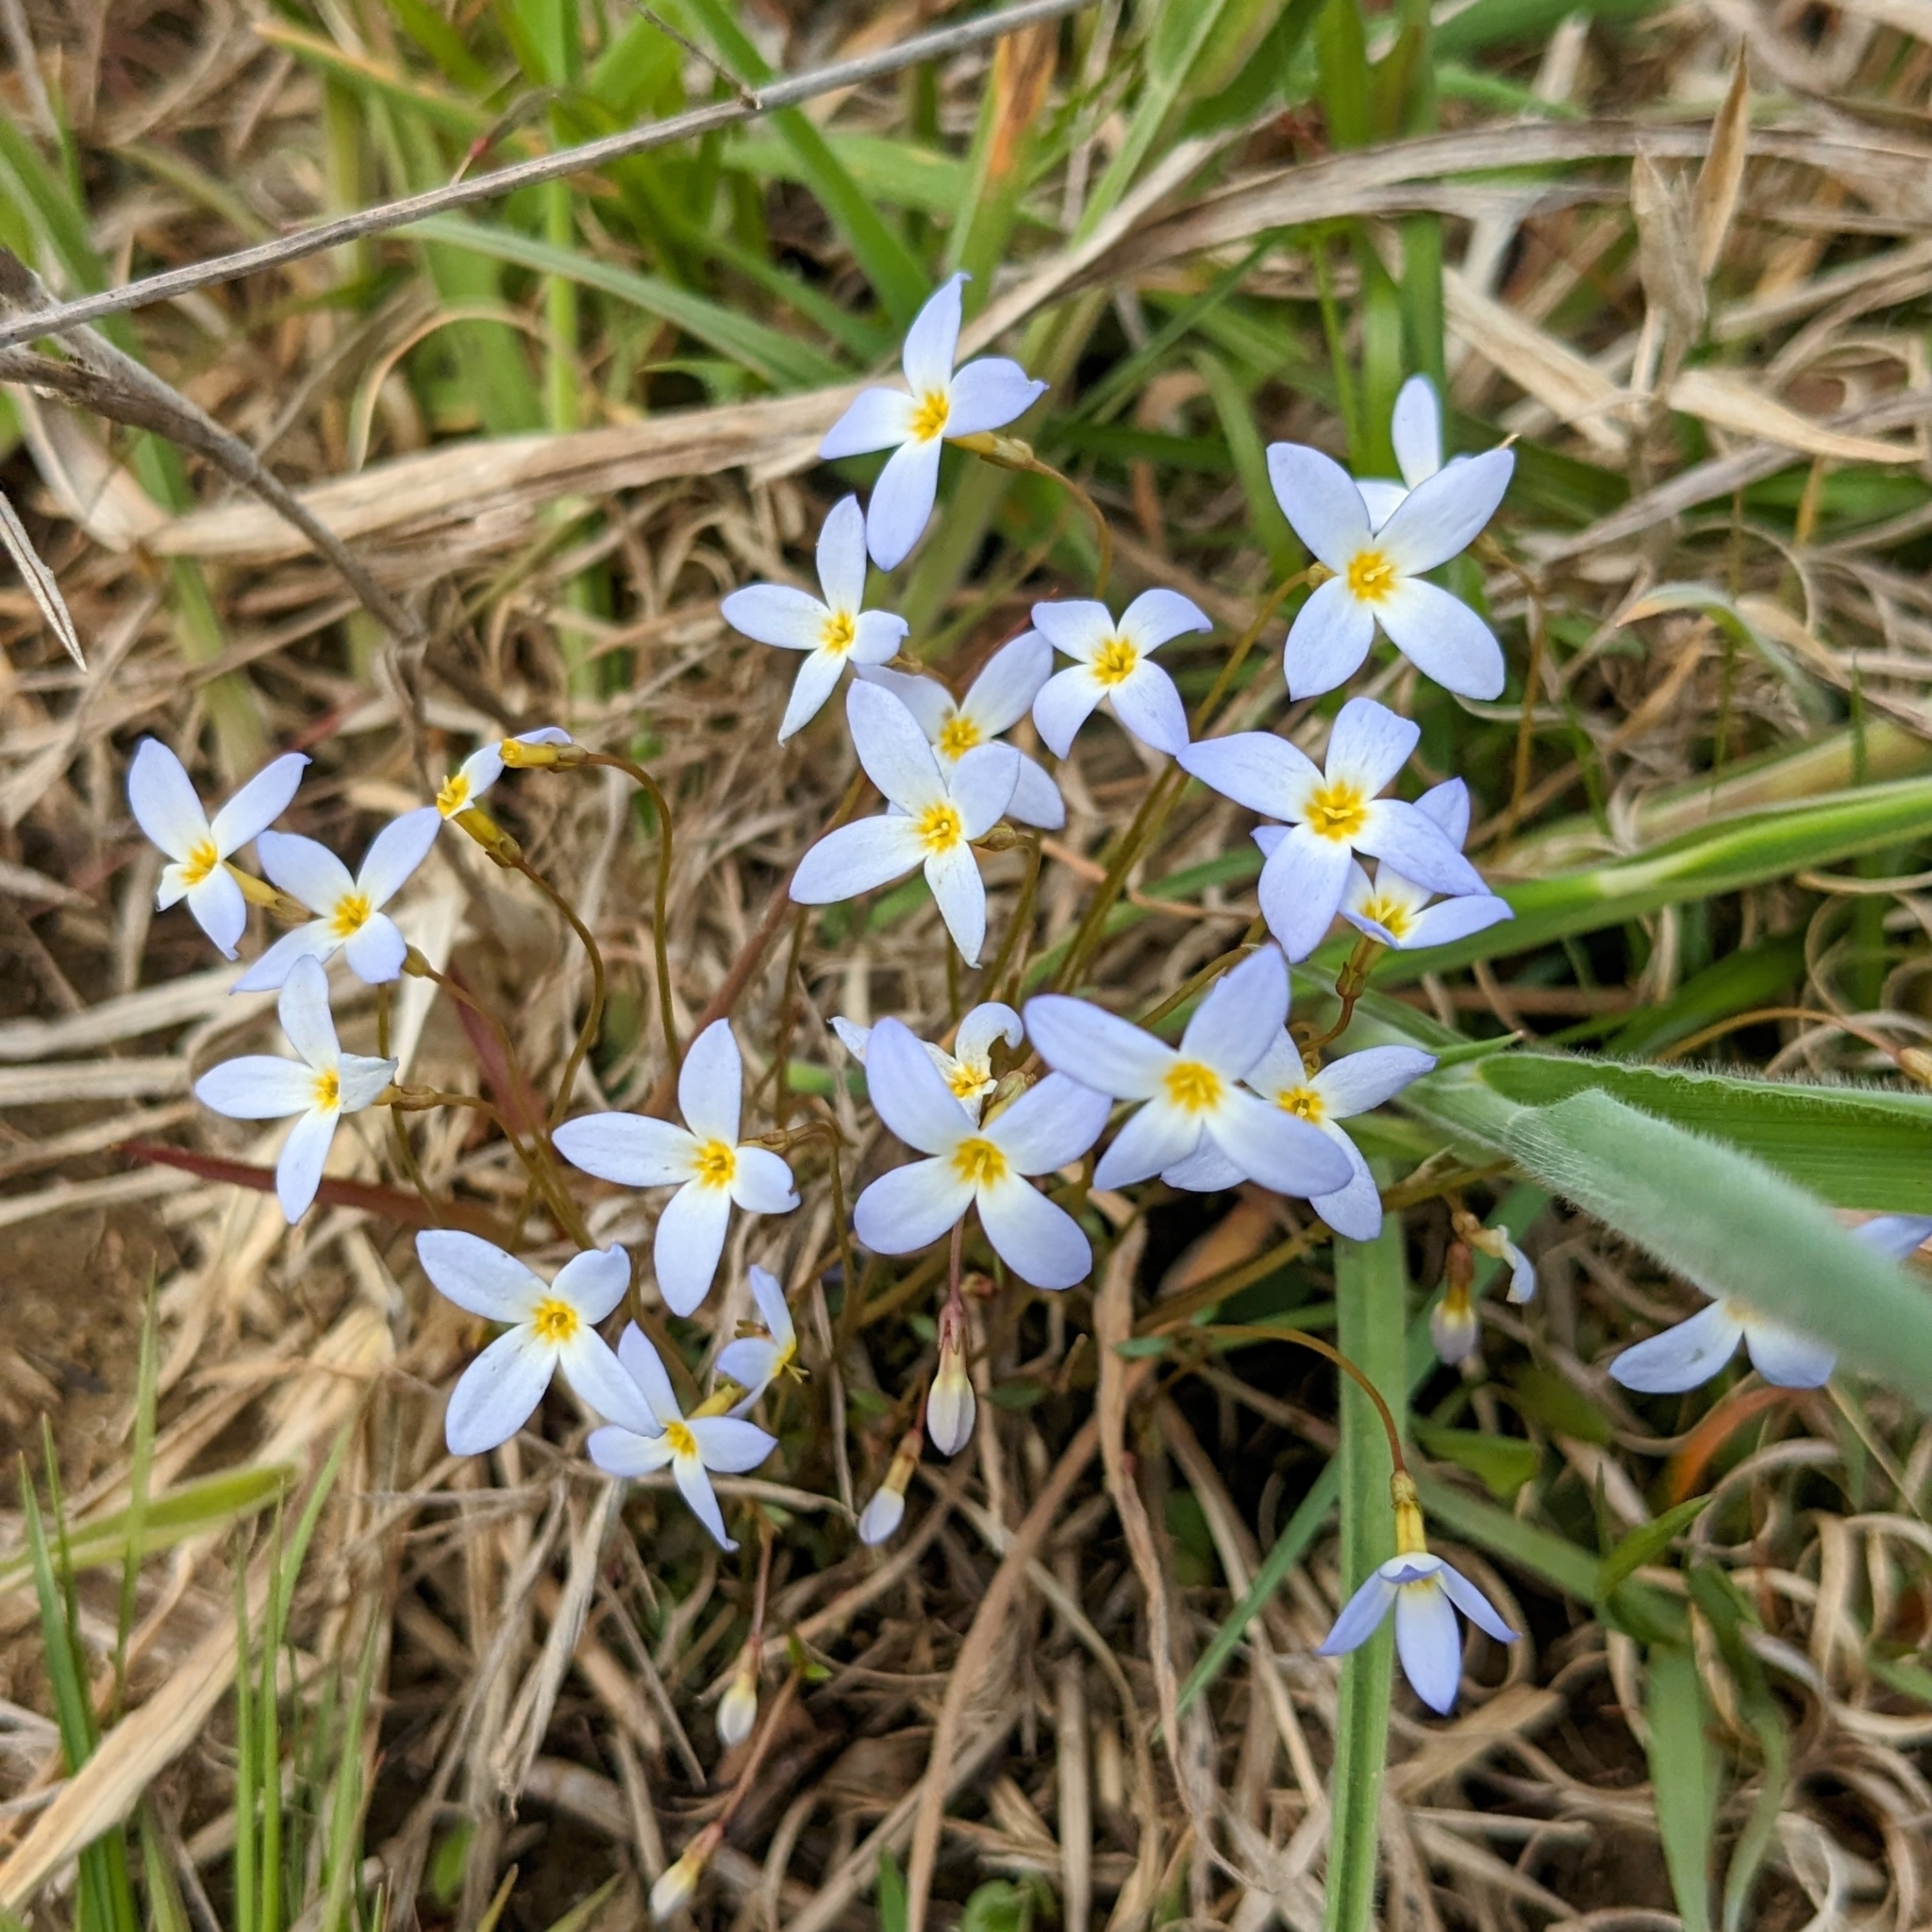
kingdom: Plantae
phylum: Tracheophyta
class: Magnoliopsida
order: Gentianales
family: Rubiaceae
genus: Houstonia
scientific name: Houstonia caerulea
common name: Bluets
